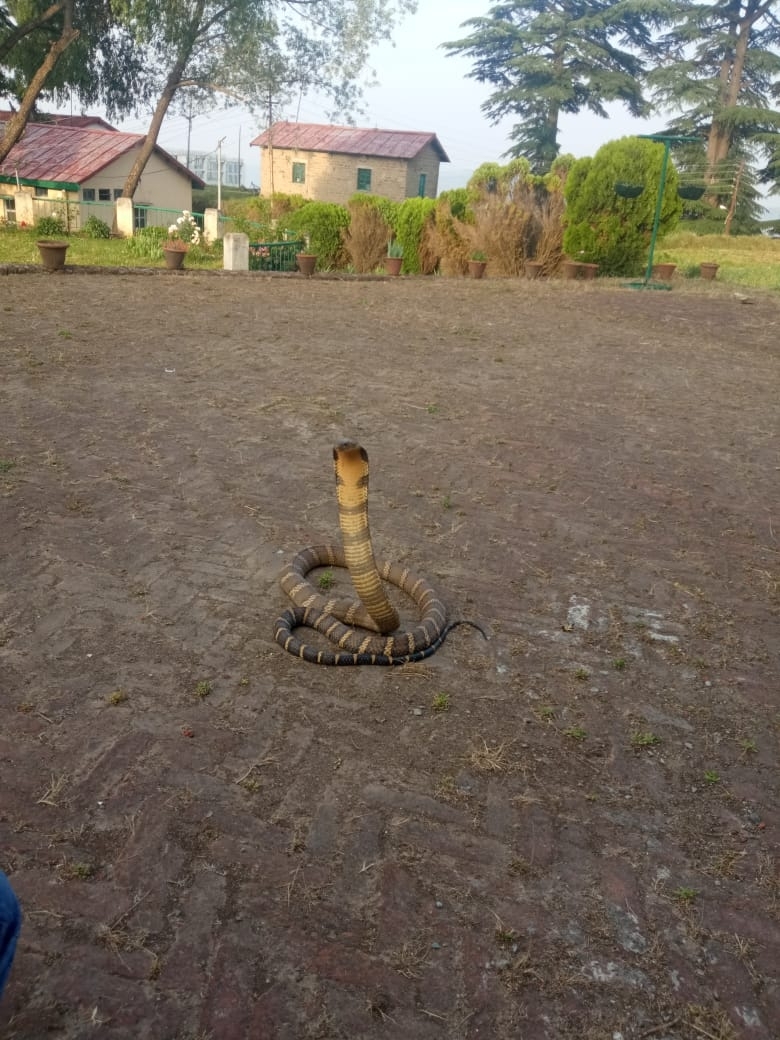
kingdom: Animalia
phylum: Chordata
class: Squamata
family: Elapidae
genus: Ophiophagus
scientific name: Ophiophagus hannah
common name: Hamadryad
